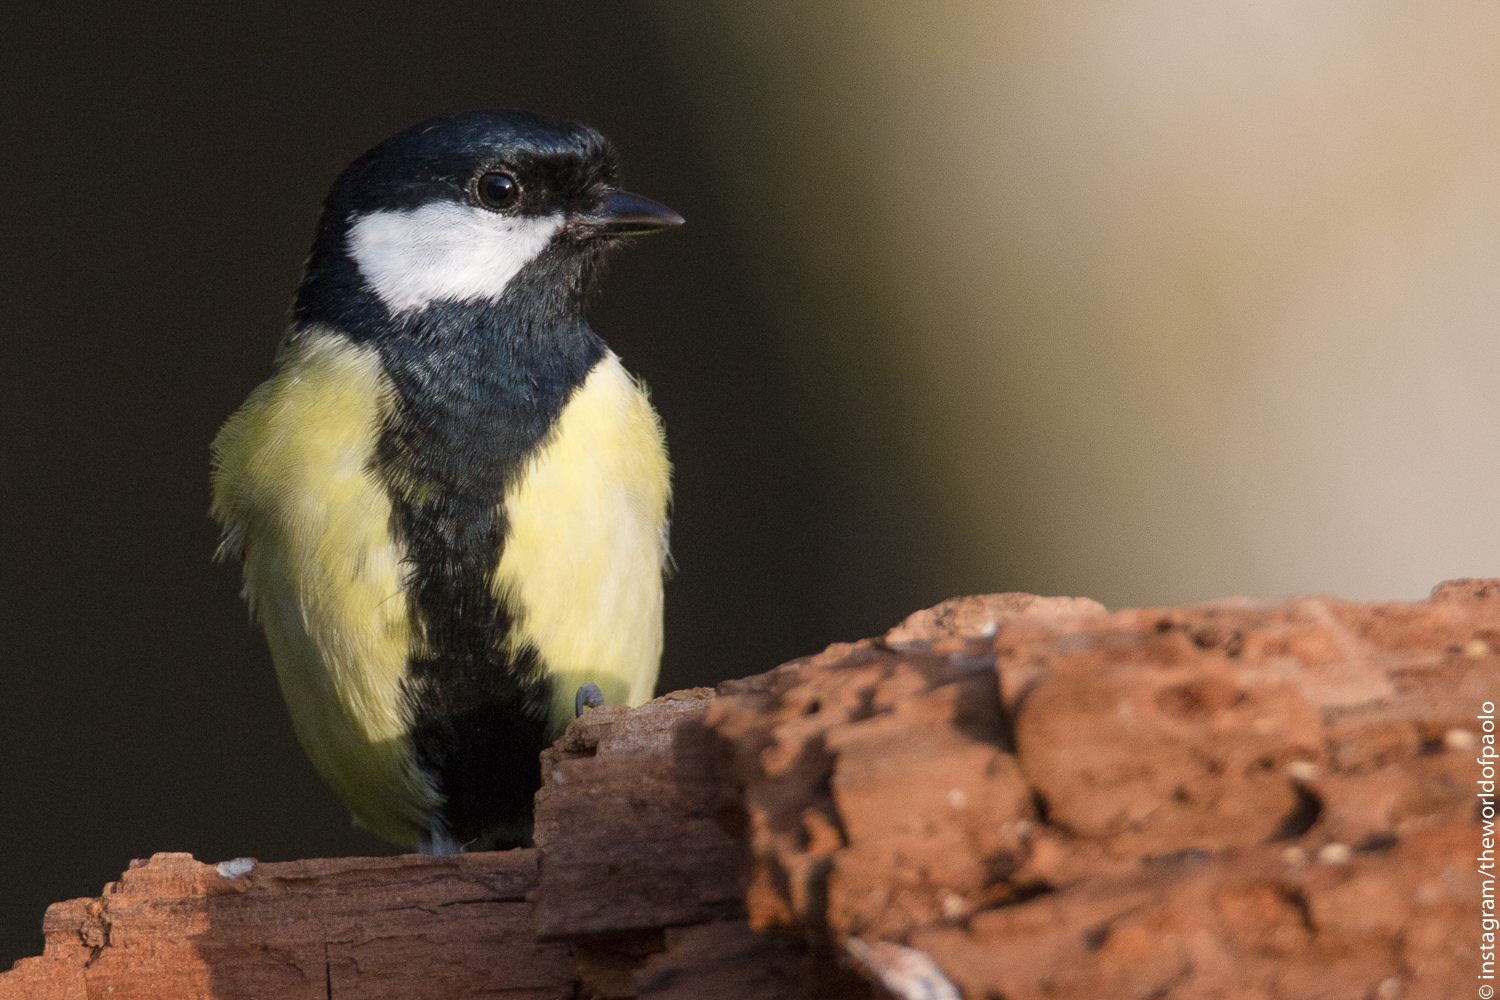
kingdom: Animalia
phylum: Chordata
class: Aves
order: Passeriformes
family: Paridae
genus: Parus
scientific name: Parus major
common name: Great tit
